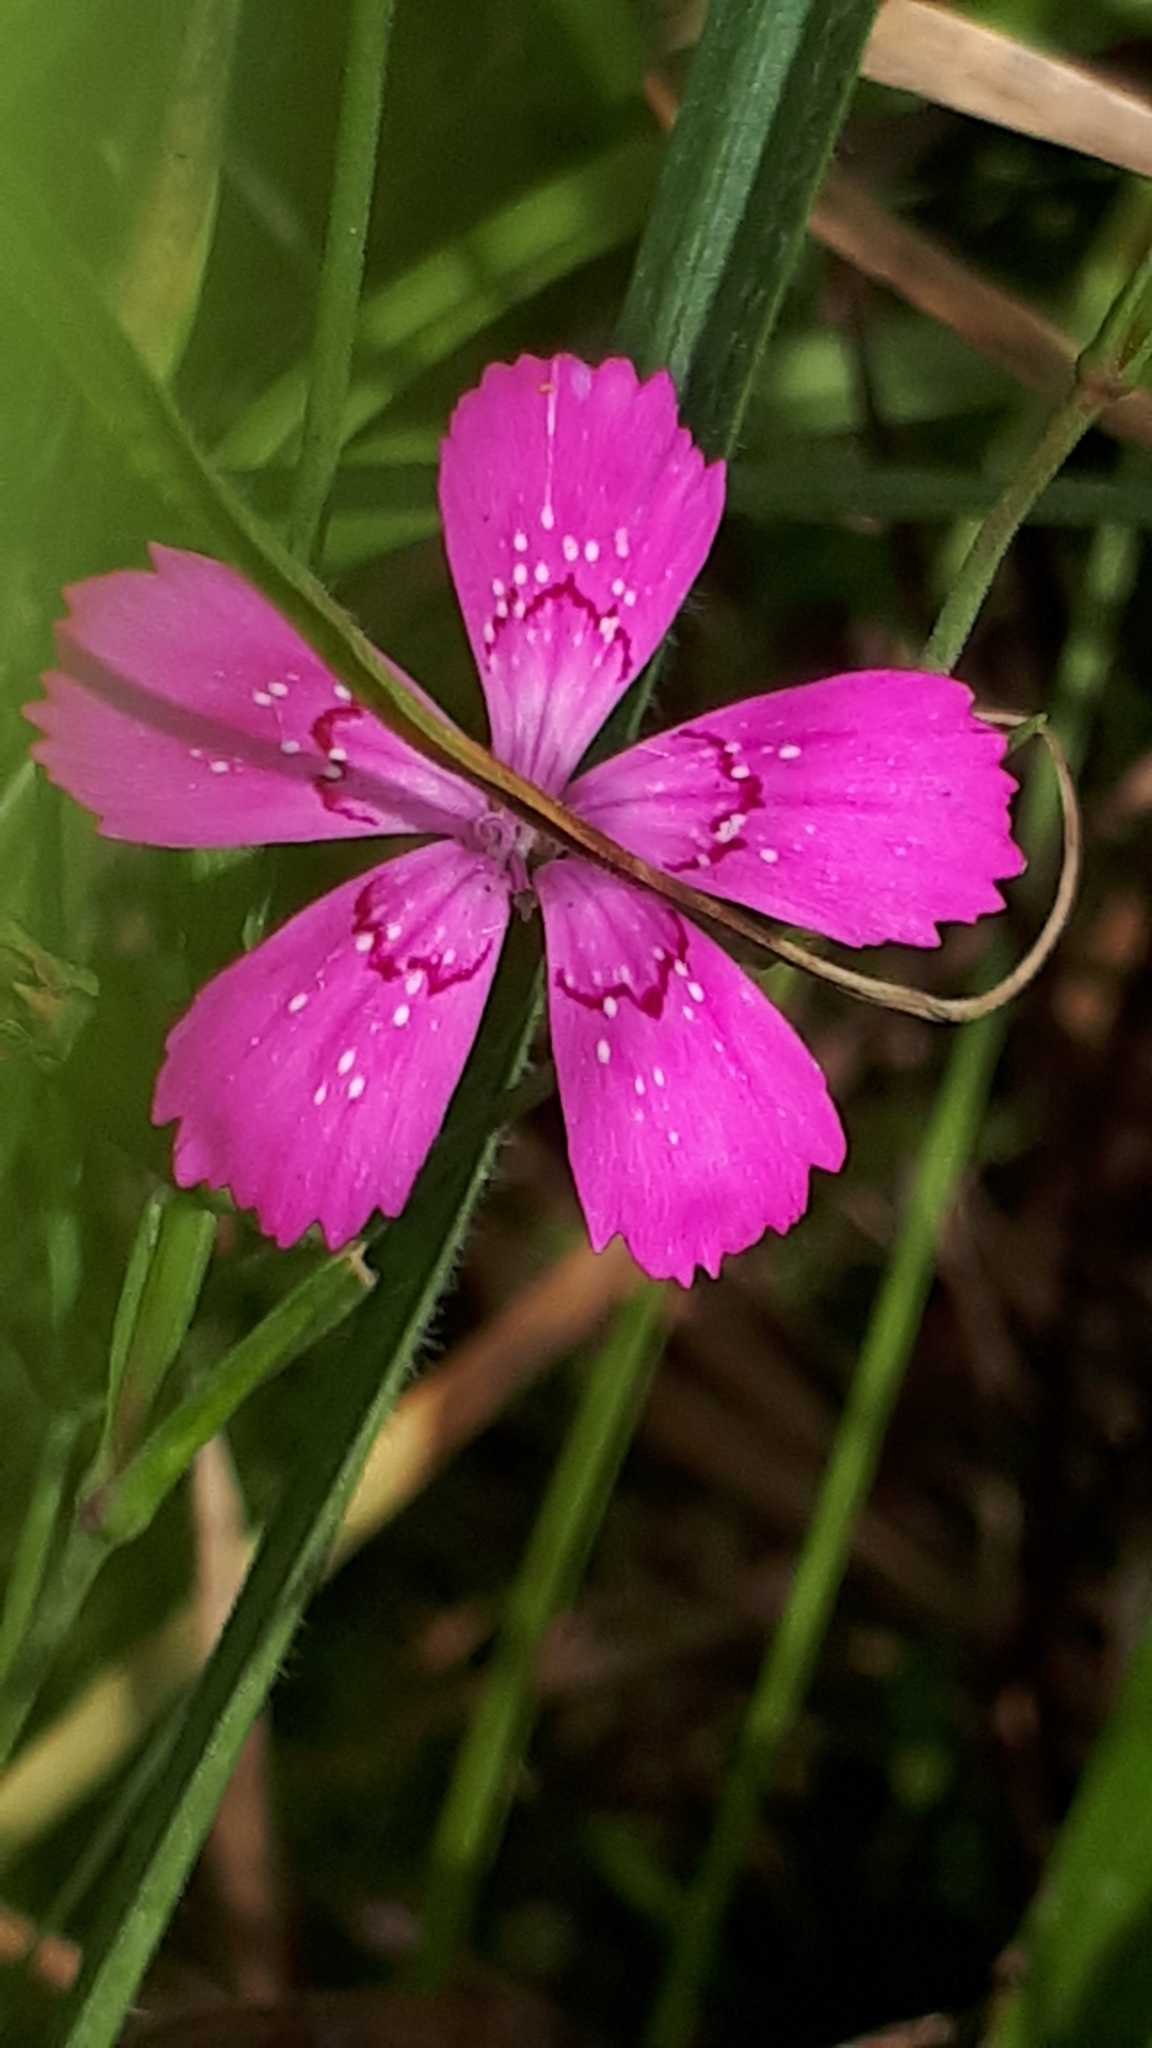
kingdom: Plantae
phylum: Tracheophyta
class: Magnoliopsida
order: Caryophyllales
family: Caryophyllaceae
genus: Dianthus
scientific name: Dianthus deltoides
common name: Maiden pink
